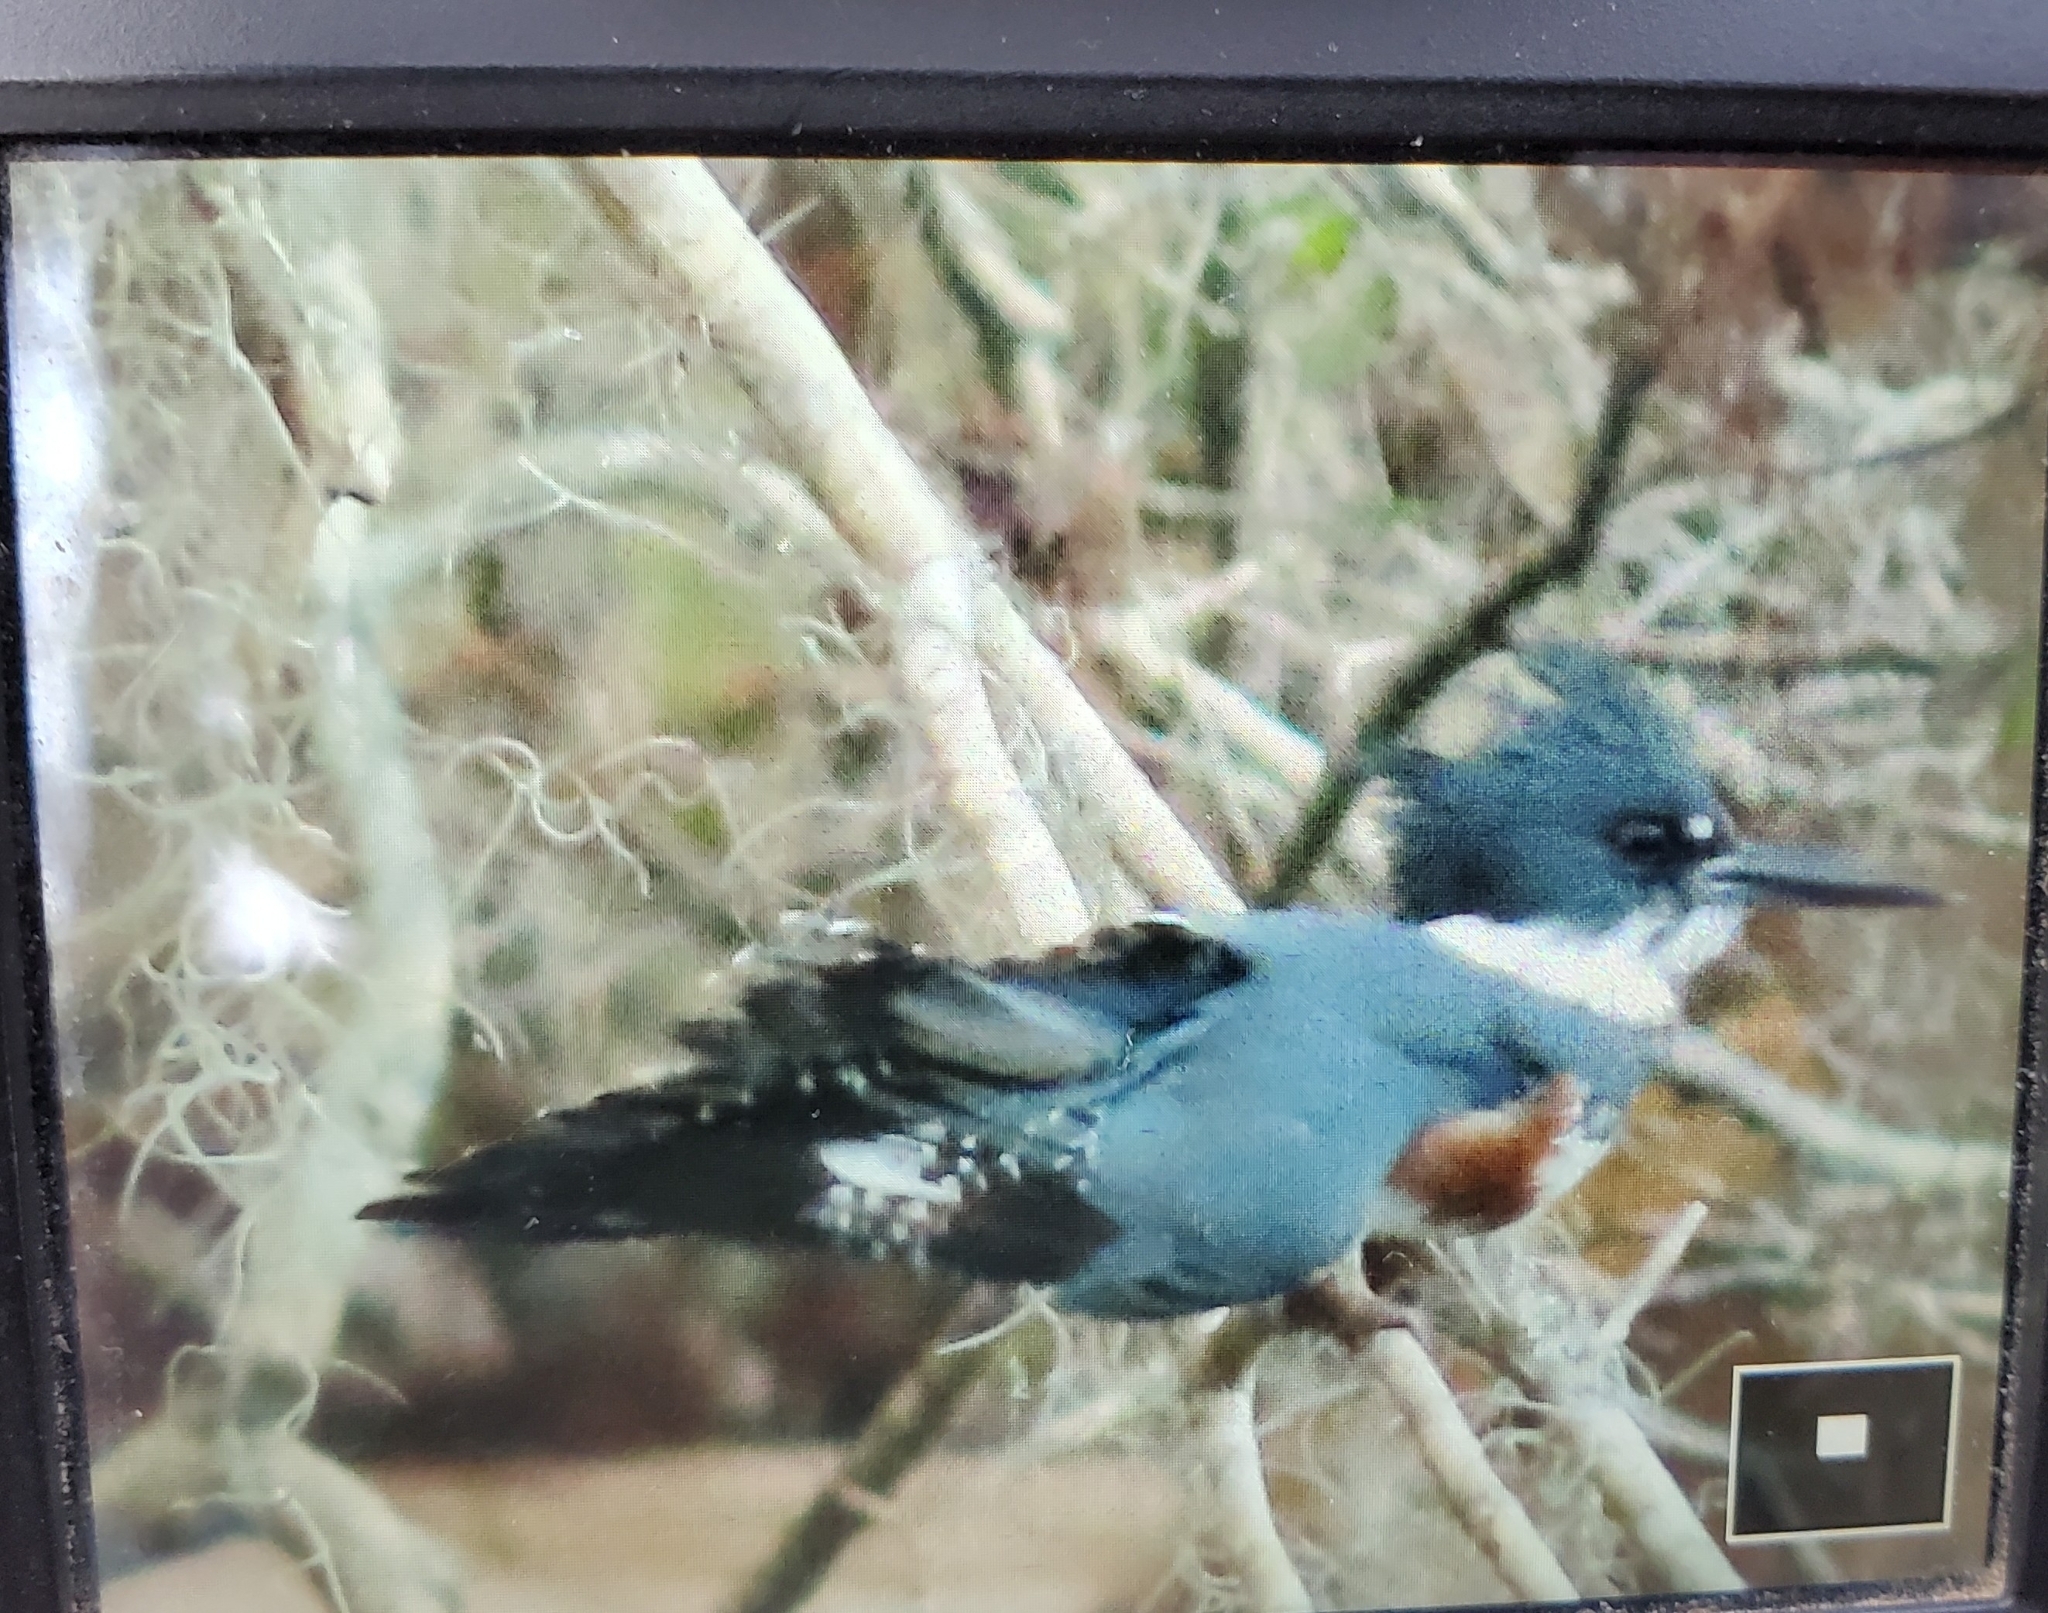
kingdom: Animalia
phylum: Chordata
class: Aves
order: Coraciiformes
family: Alcedinidae
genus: Megaceryle
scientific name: Megaceryle alcyon
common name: Belted kingfisher
